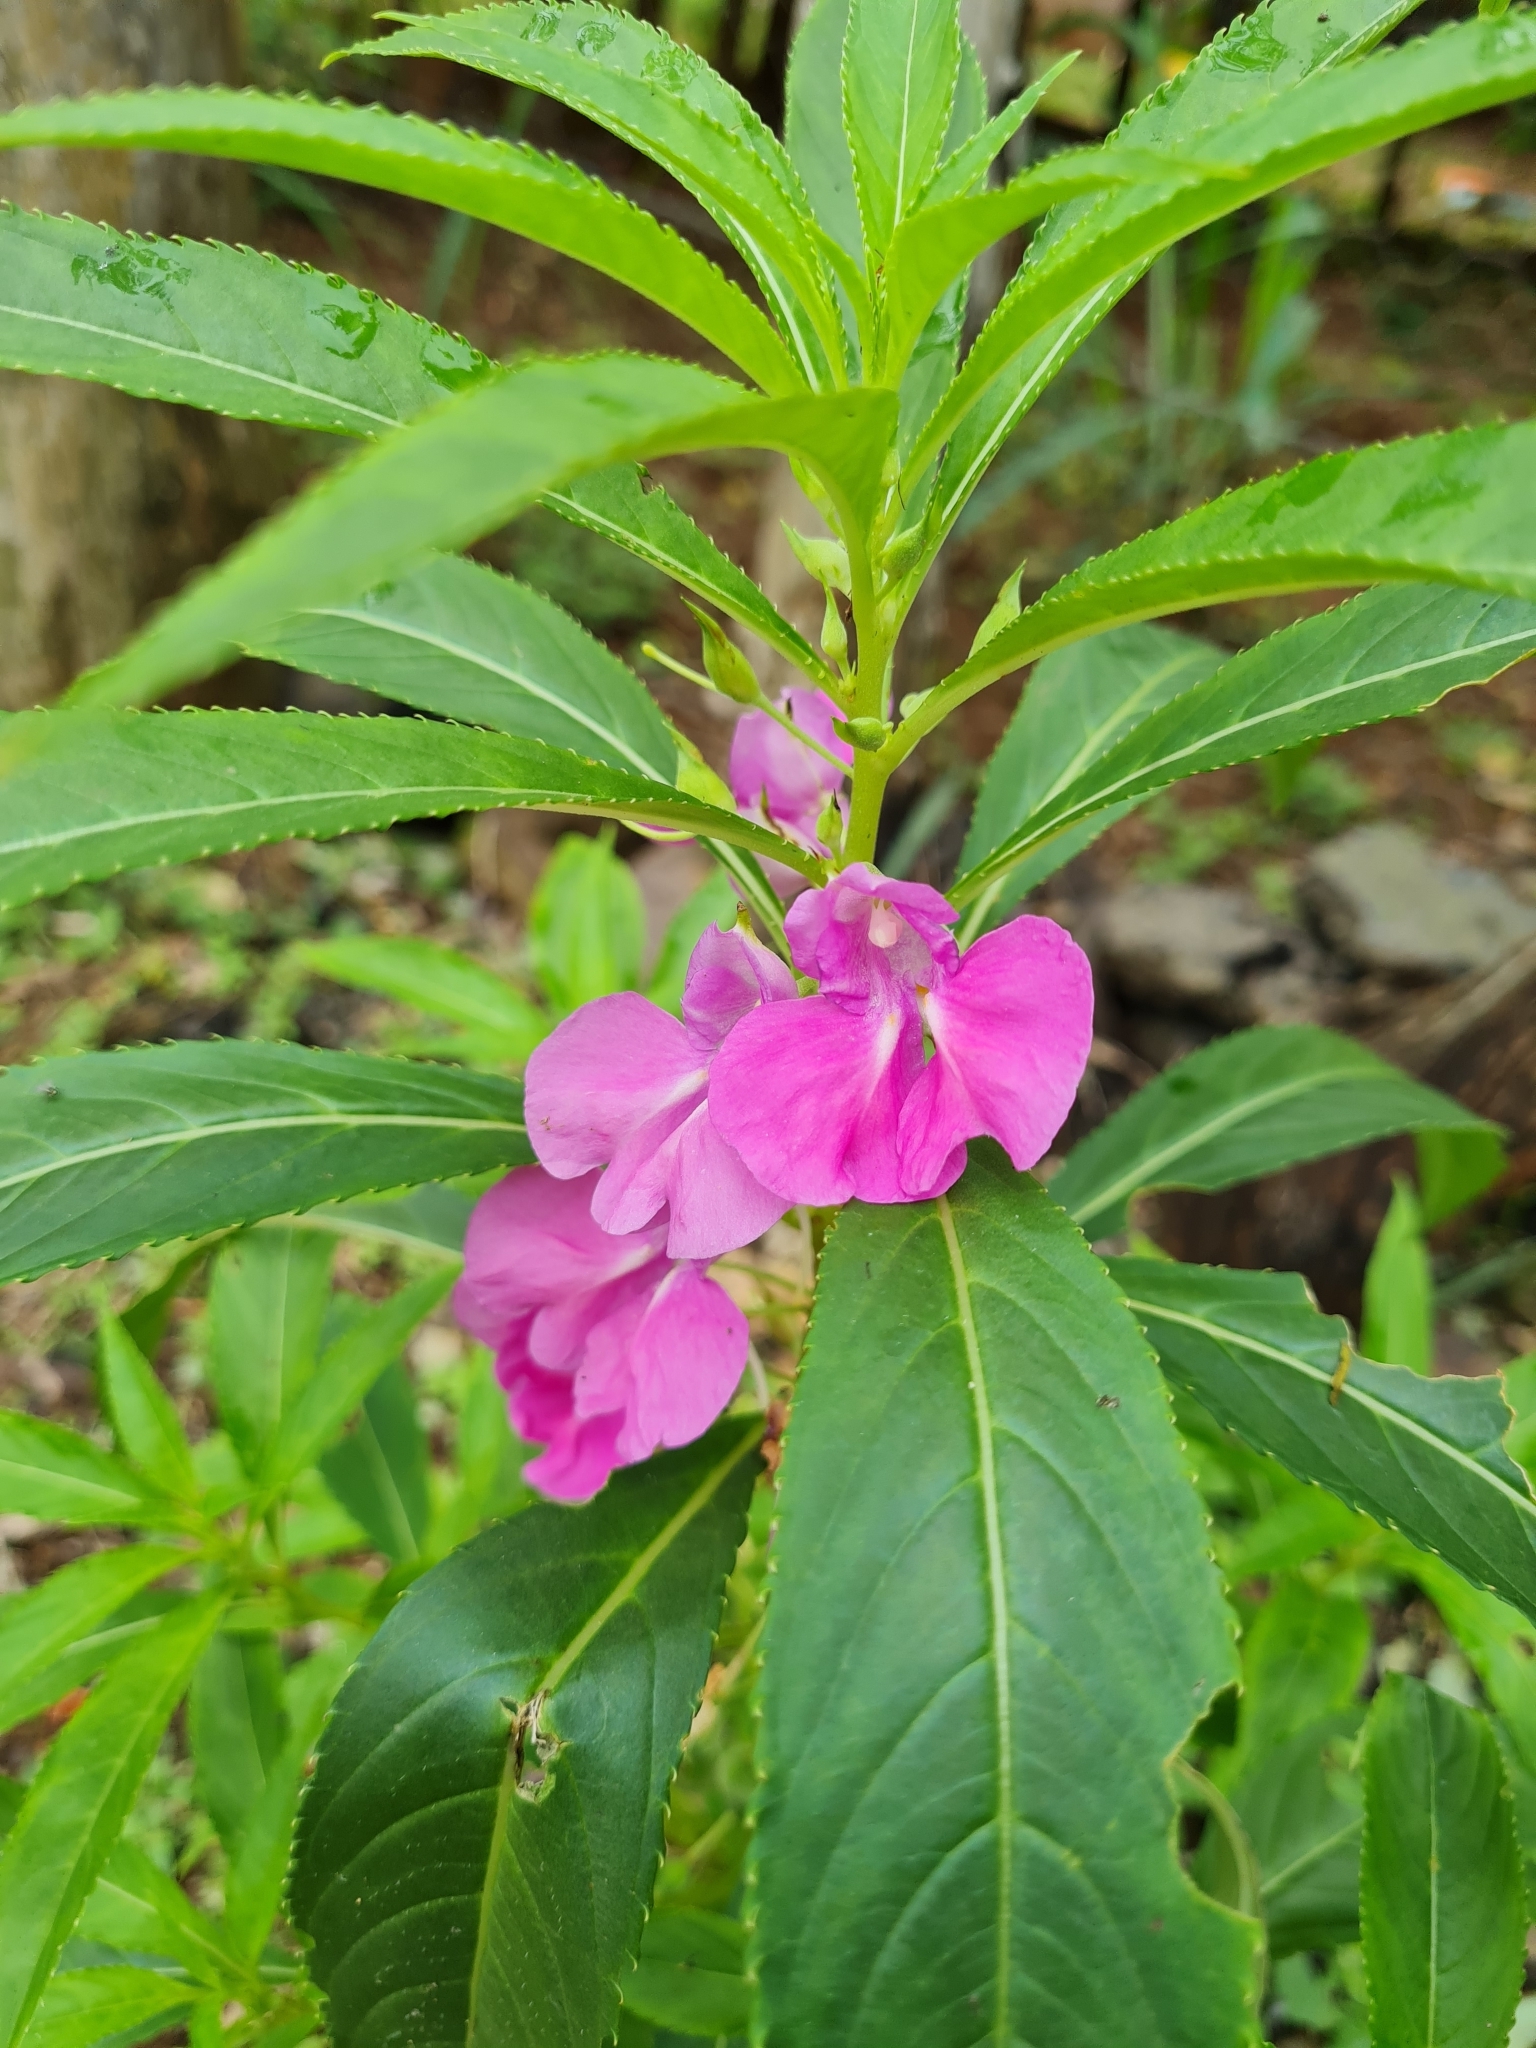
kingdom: Plantae
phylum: Tracheophyta
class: Magnoliopsida
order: Ericales
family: Balsaminaceae
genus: Impatiens
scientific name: Impatiens balsamina
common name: Balsam
